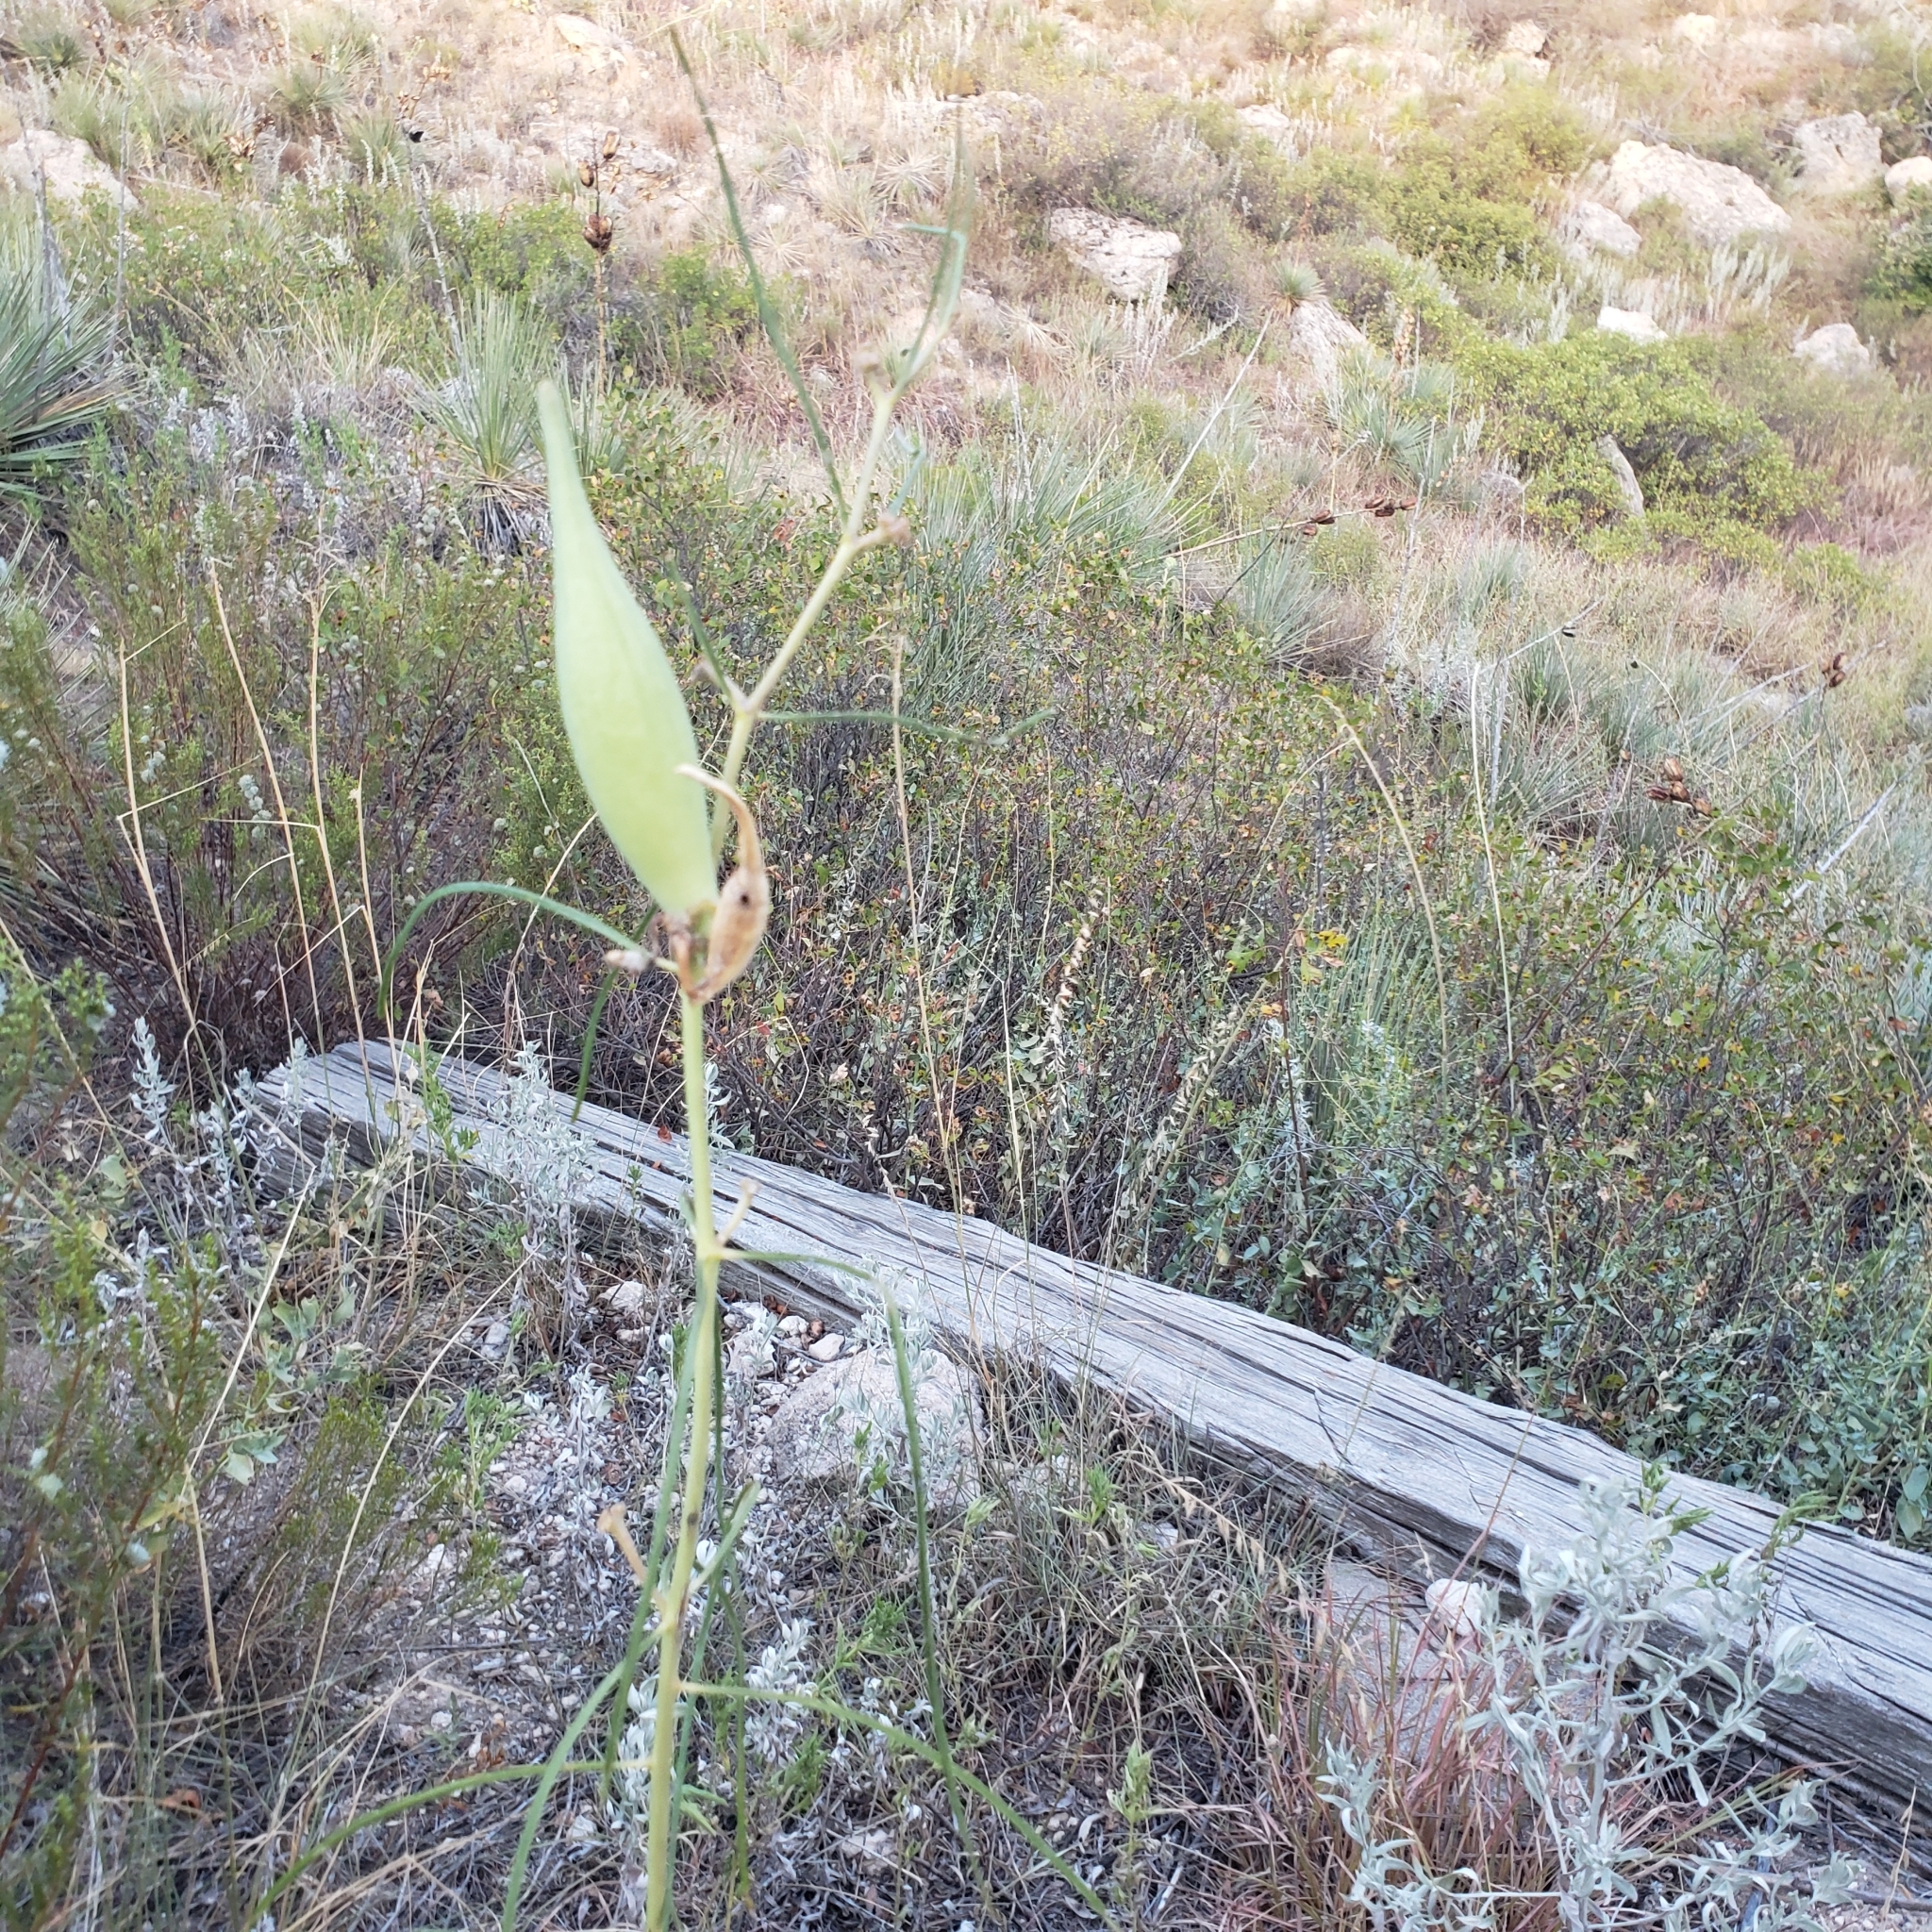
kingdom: Plantae
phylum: Tracheophyta
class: Magnoliopsida
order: Gentianales
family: Apocynaceae
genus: Asclepias
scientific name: Asclepias engelmanniana
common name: Engelmann's milkweed
